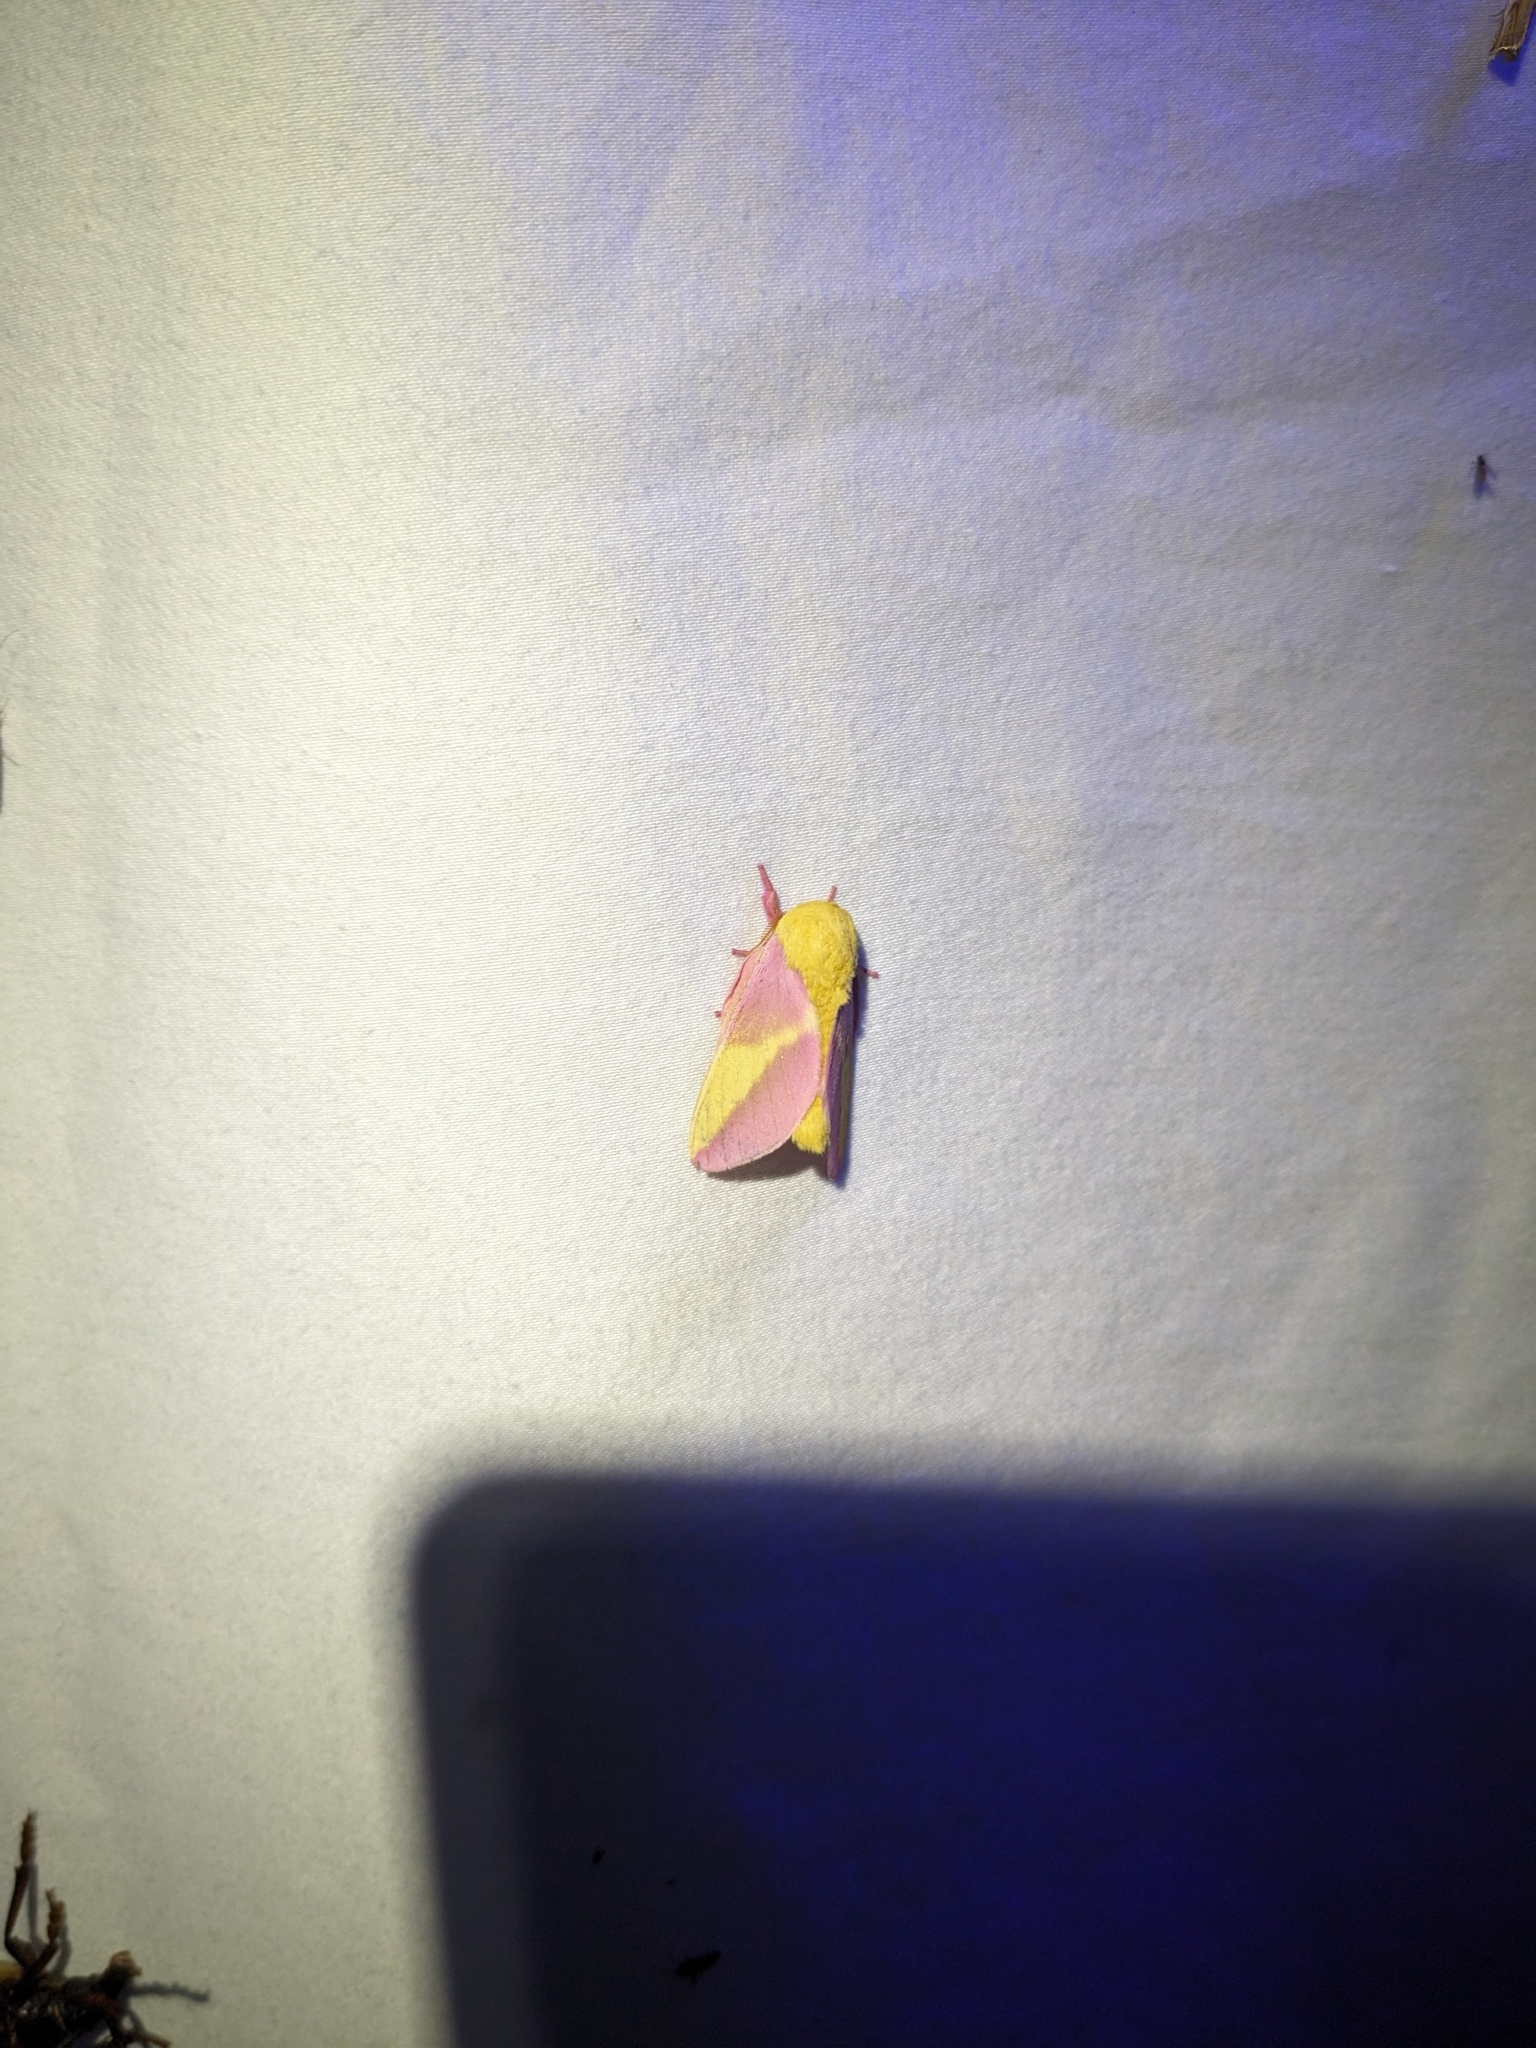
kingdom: Animalia
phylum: Arthropoda
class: Insecta
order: Lepidoptera
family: Saturniidae
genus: Dryocampa
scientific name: Dryocampa rubicunda
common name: Rosy maple moth
